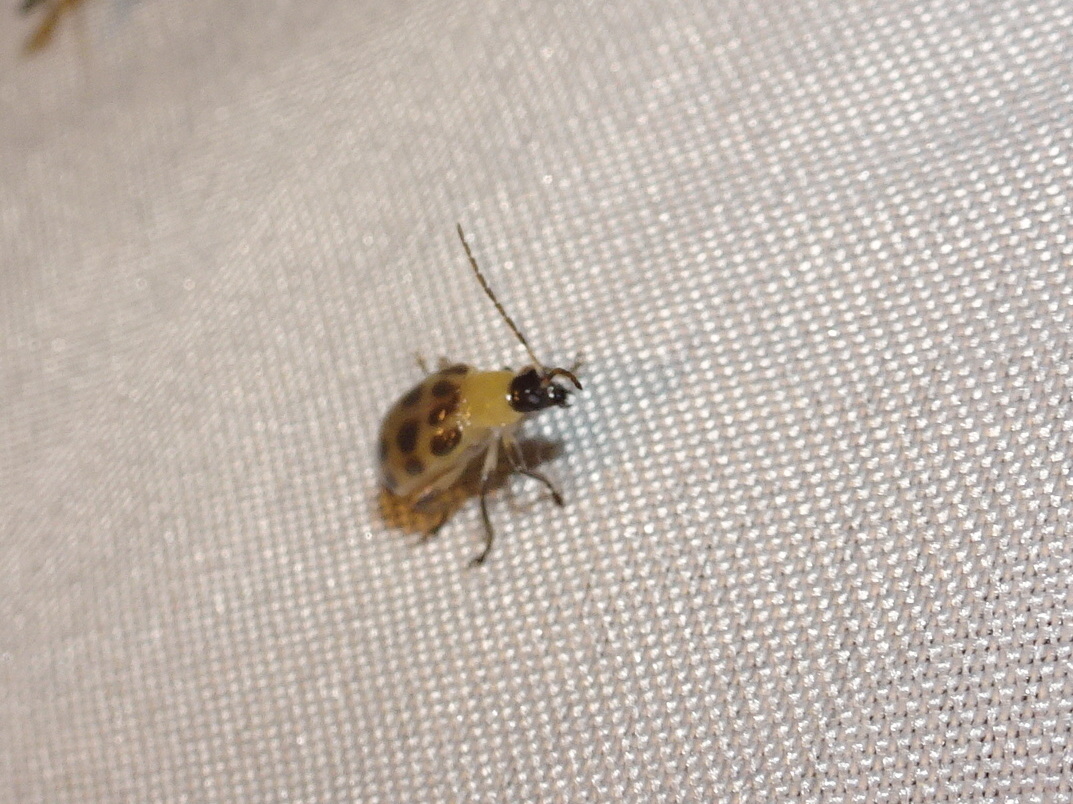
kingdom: Animalia
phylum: Arthropoda
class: Insecta
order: Coleoptera
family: Chrysomelidae
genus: Diabrotica
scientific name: Diabrotica undecimpunctata
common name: Spotted cucumber beetle
